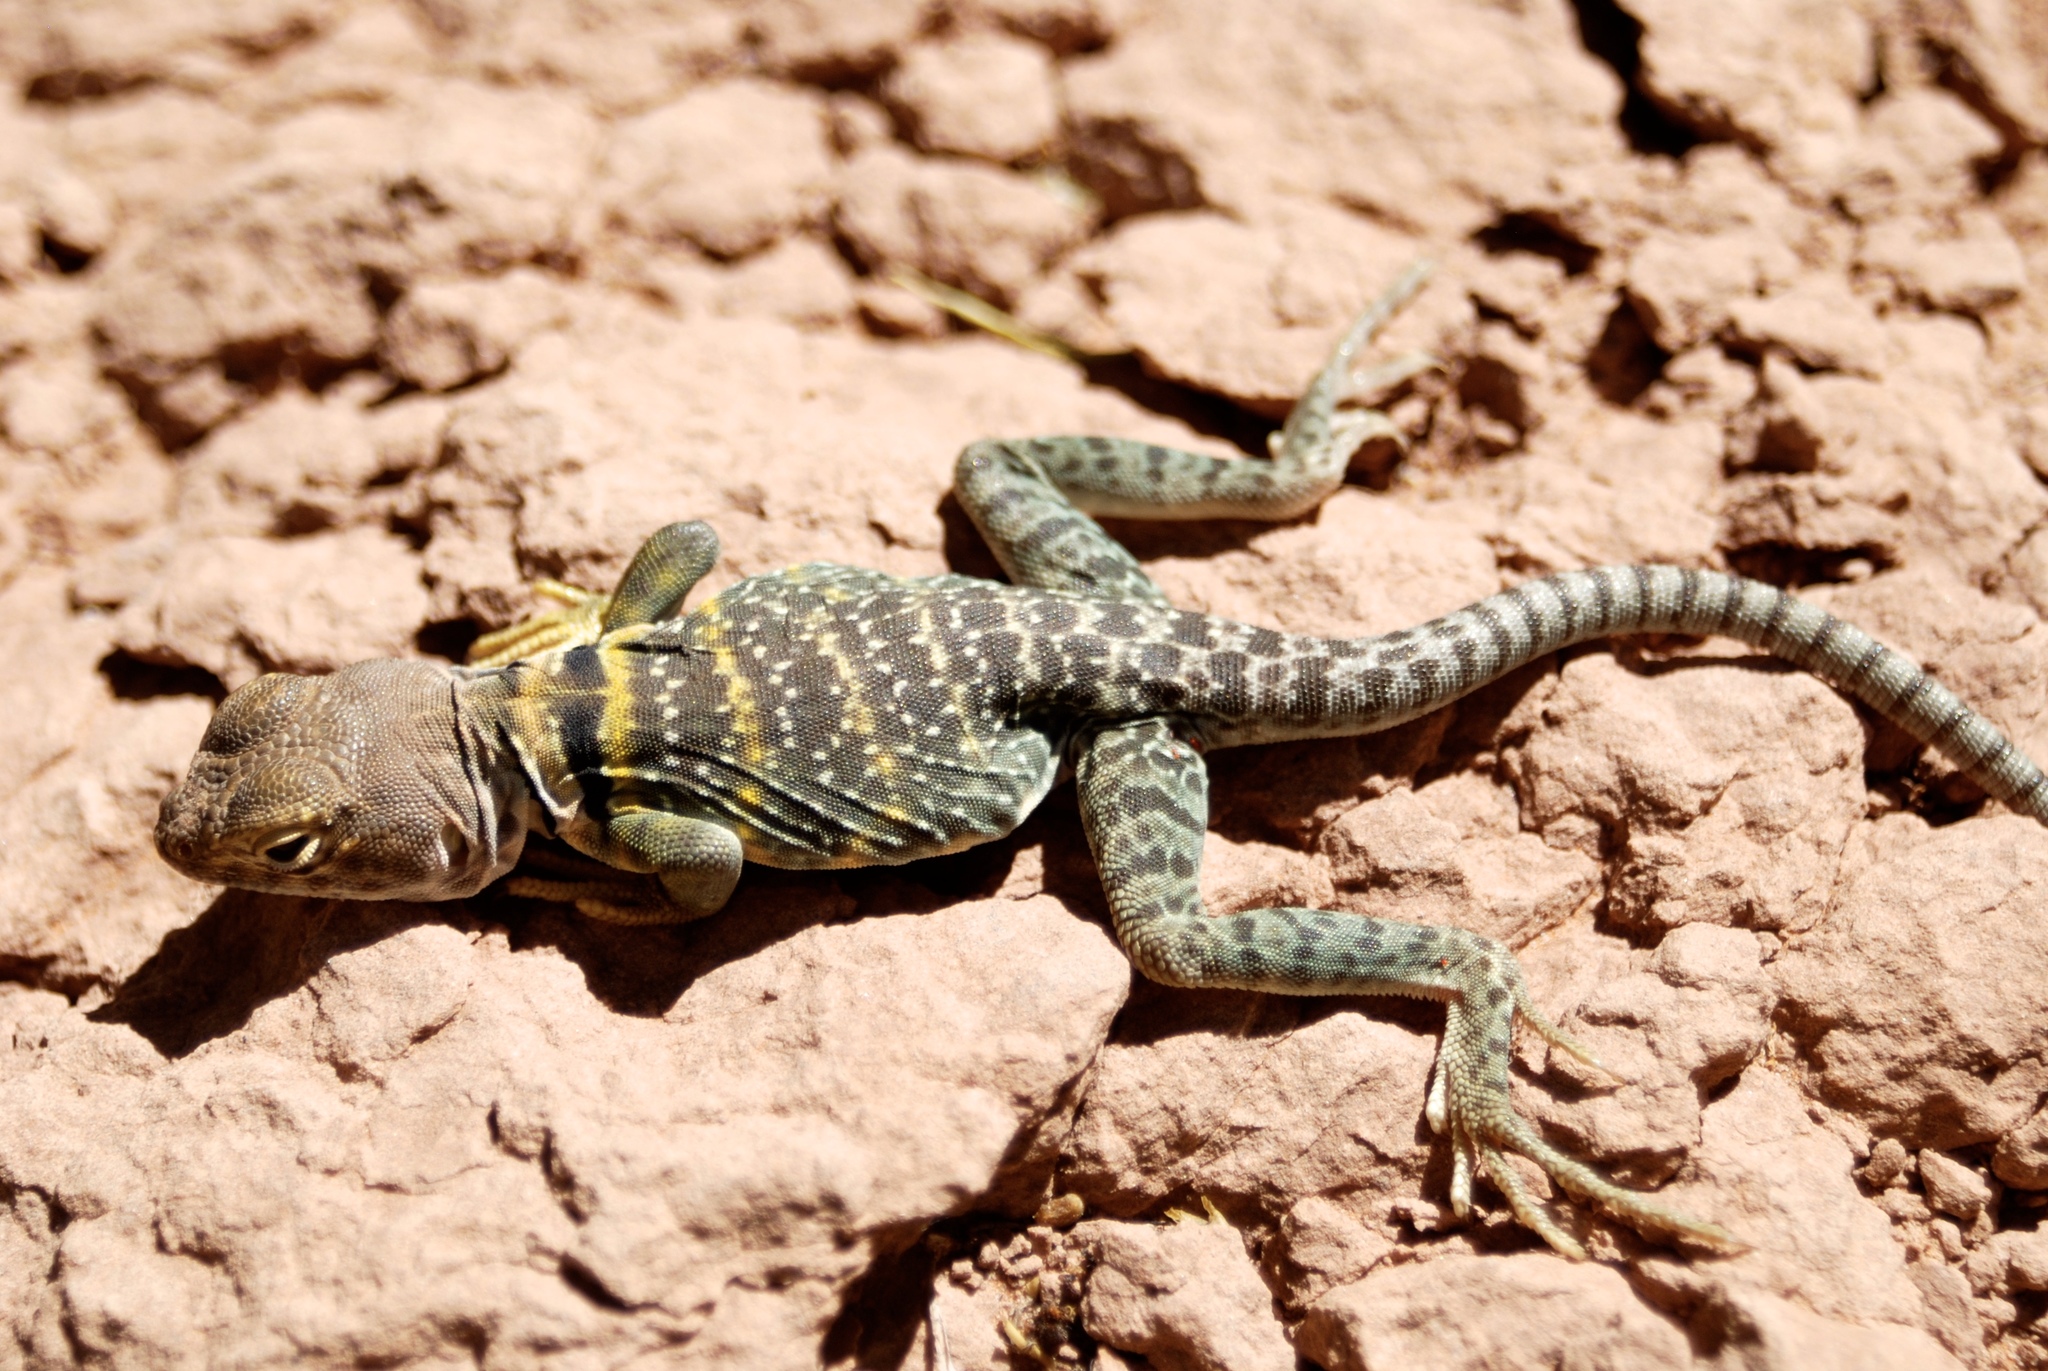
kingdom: Animalia
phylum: Chordata
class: Squamata
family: Crotaphytidae
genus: Crotaphytus
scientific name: Crotaphytus collaris
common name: Collared lizard
